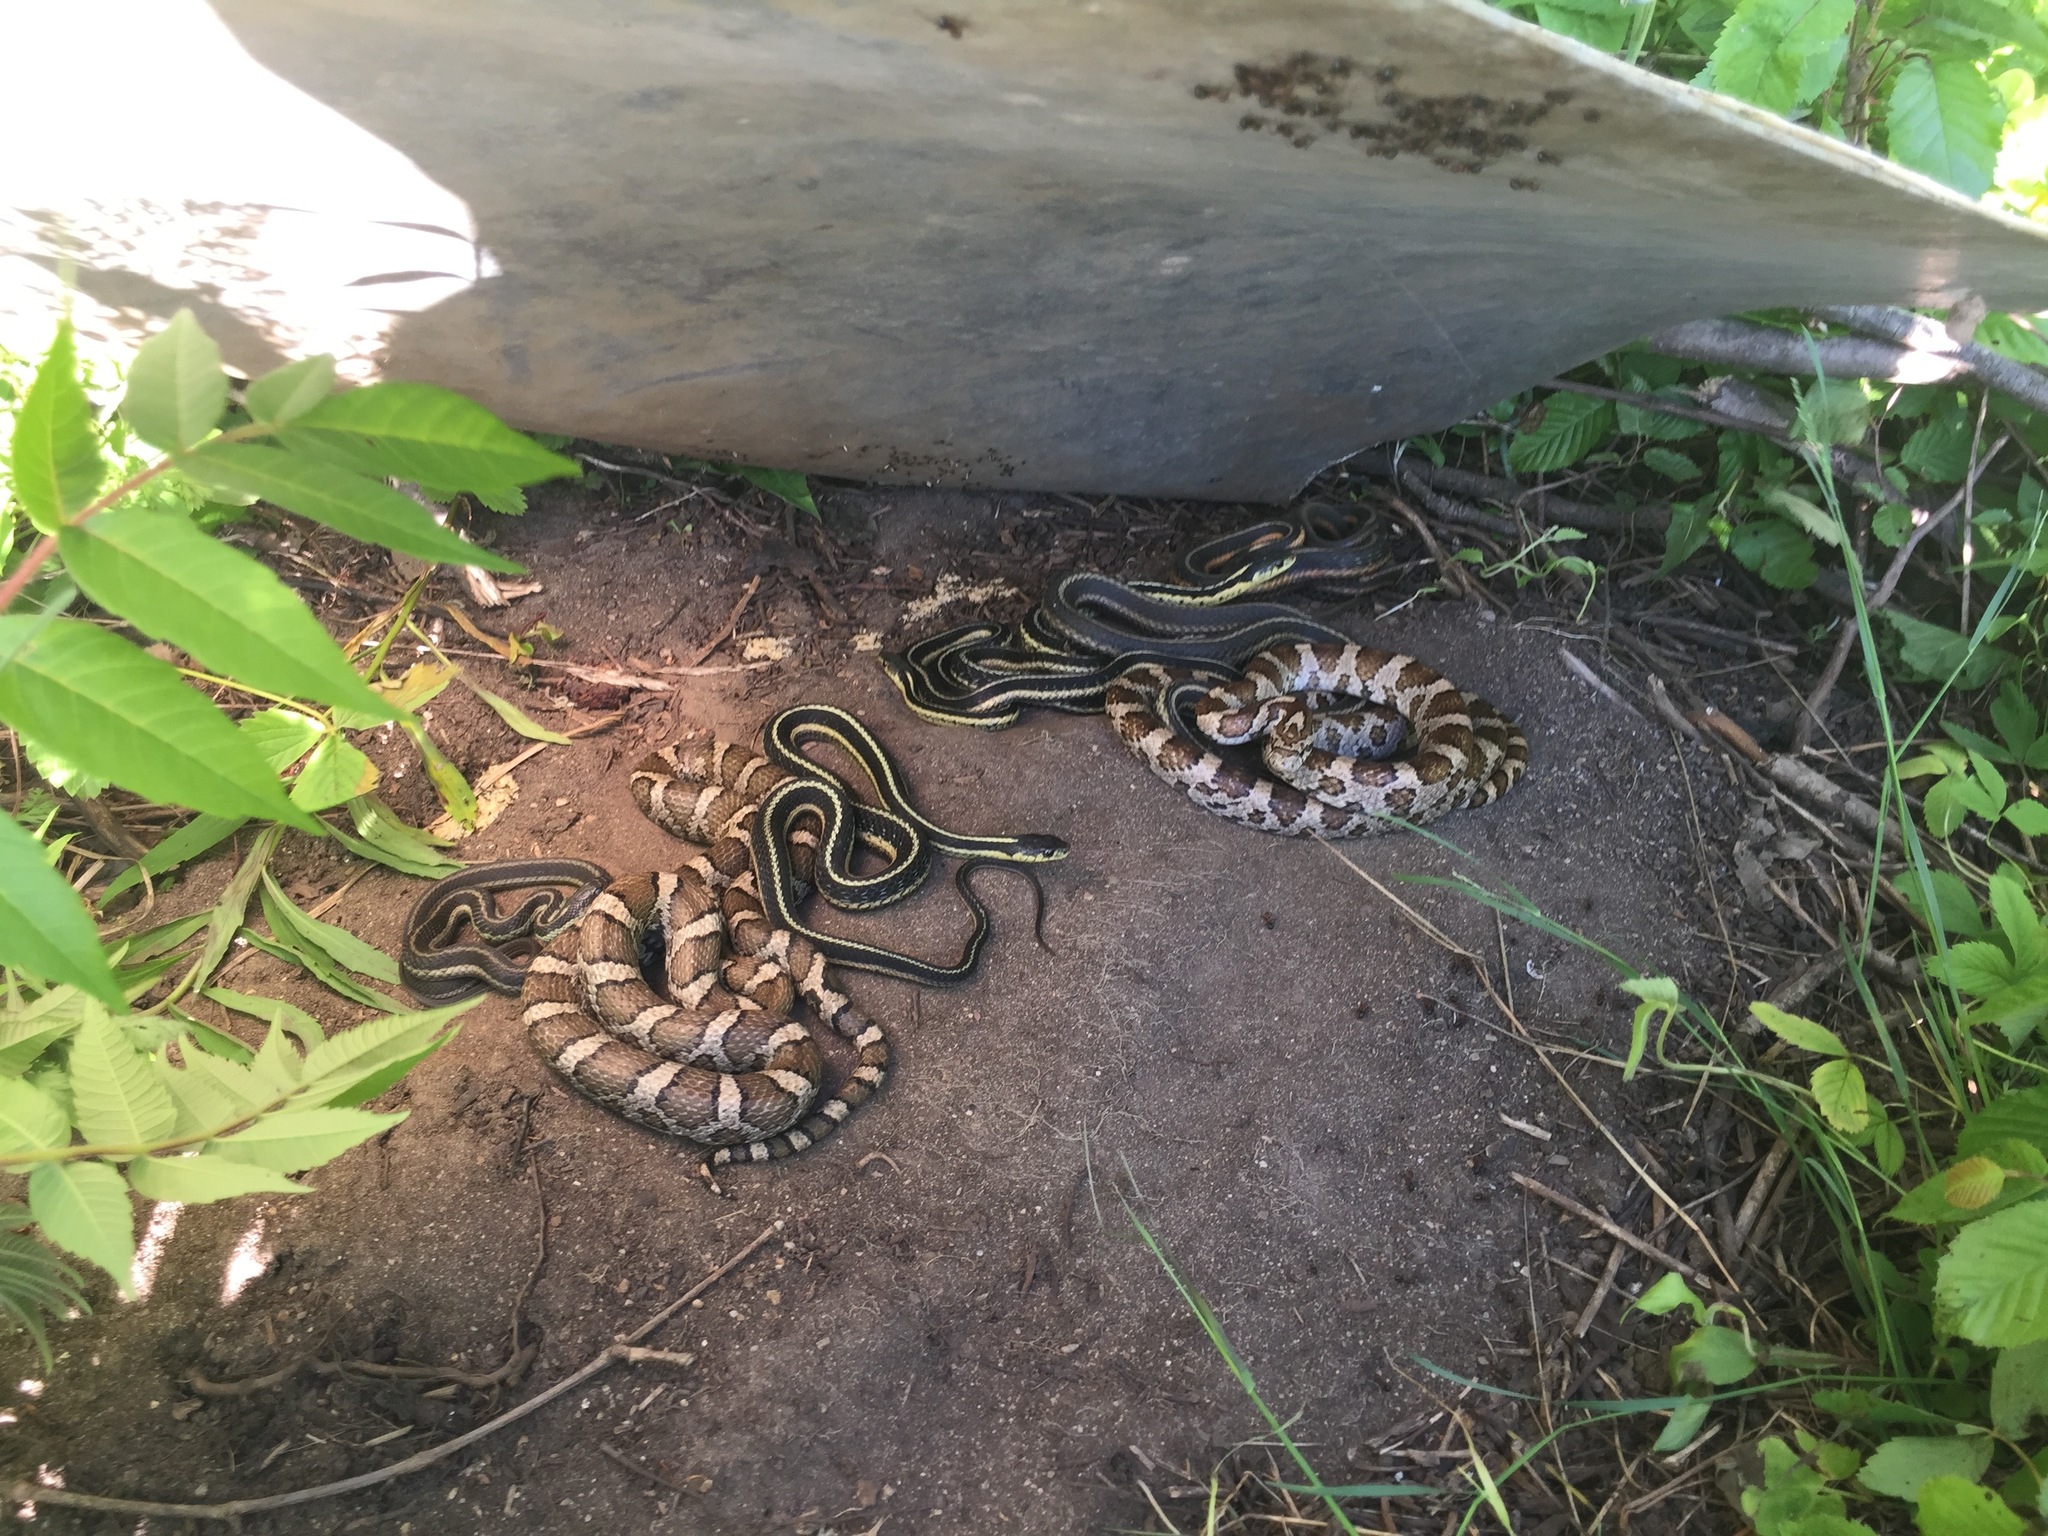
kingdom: Animalia
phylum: Chordata
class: Squamata
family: Colubridae
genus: Thamnophis
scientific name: Thamnophis sirtalis
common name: Common garter snake
